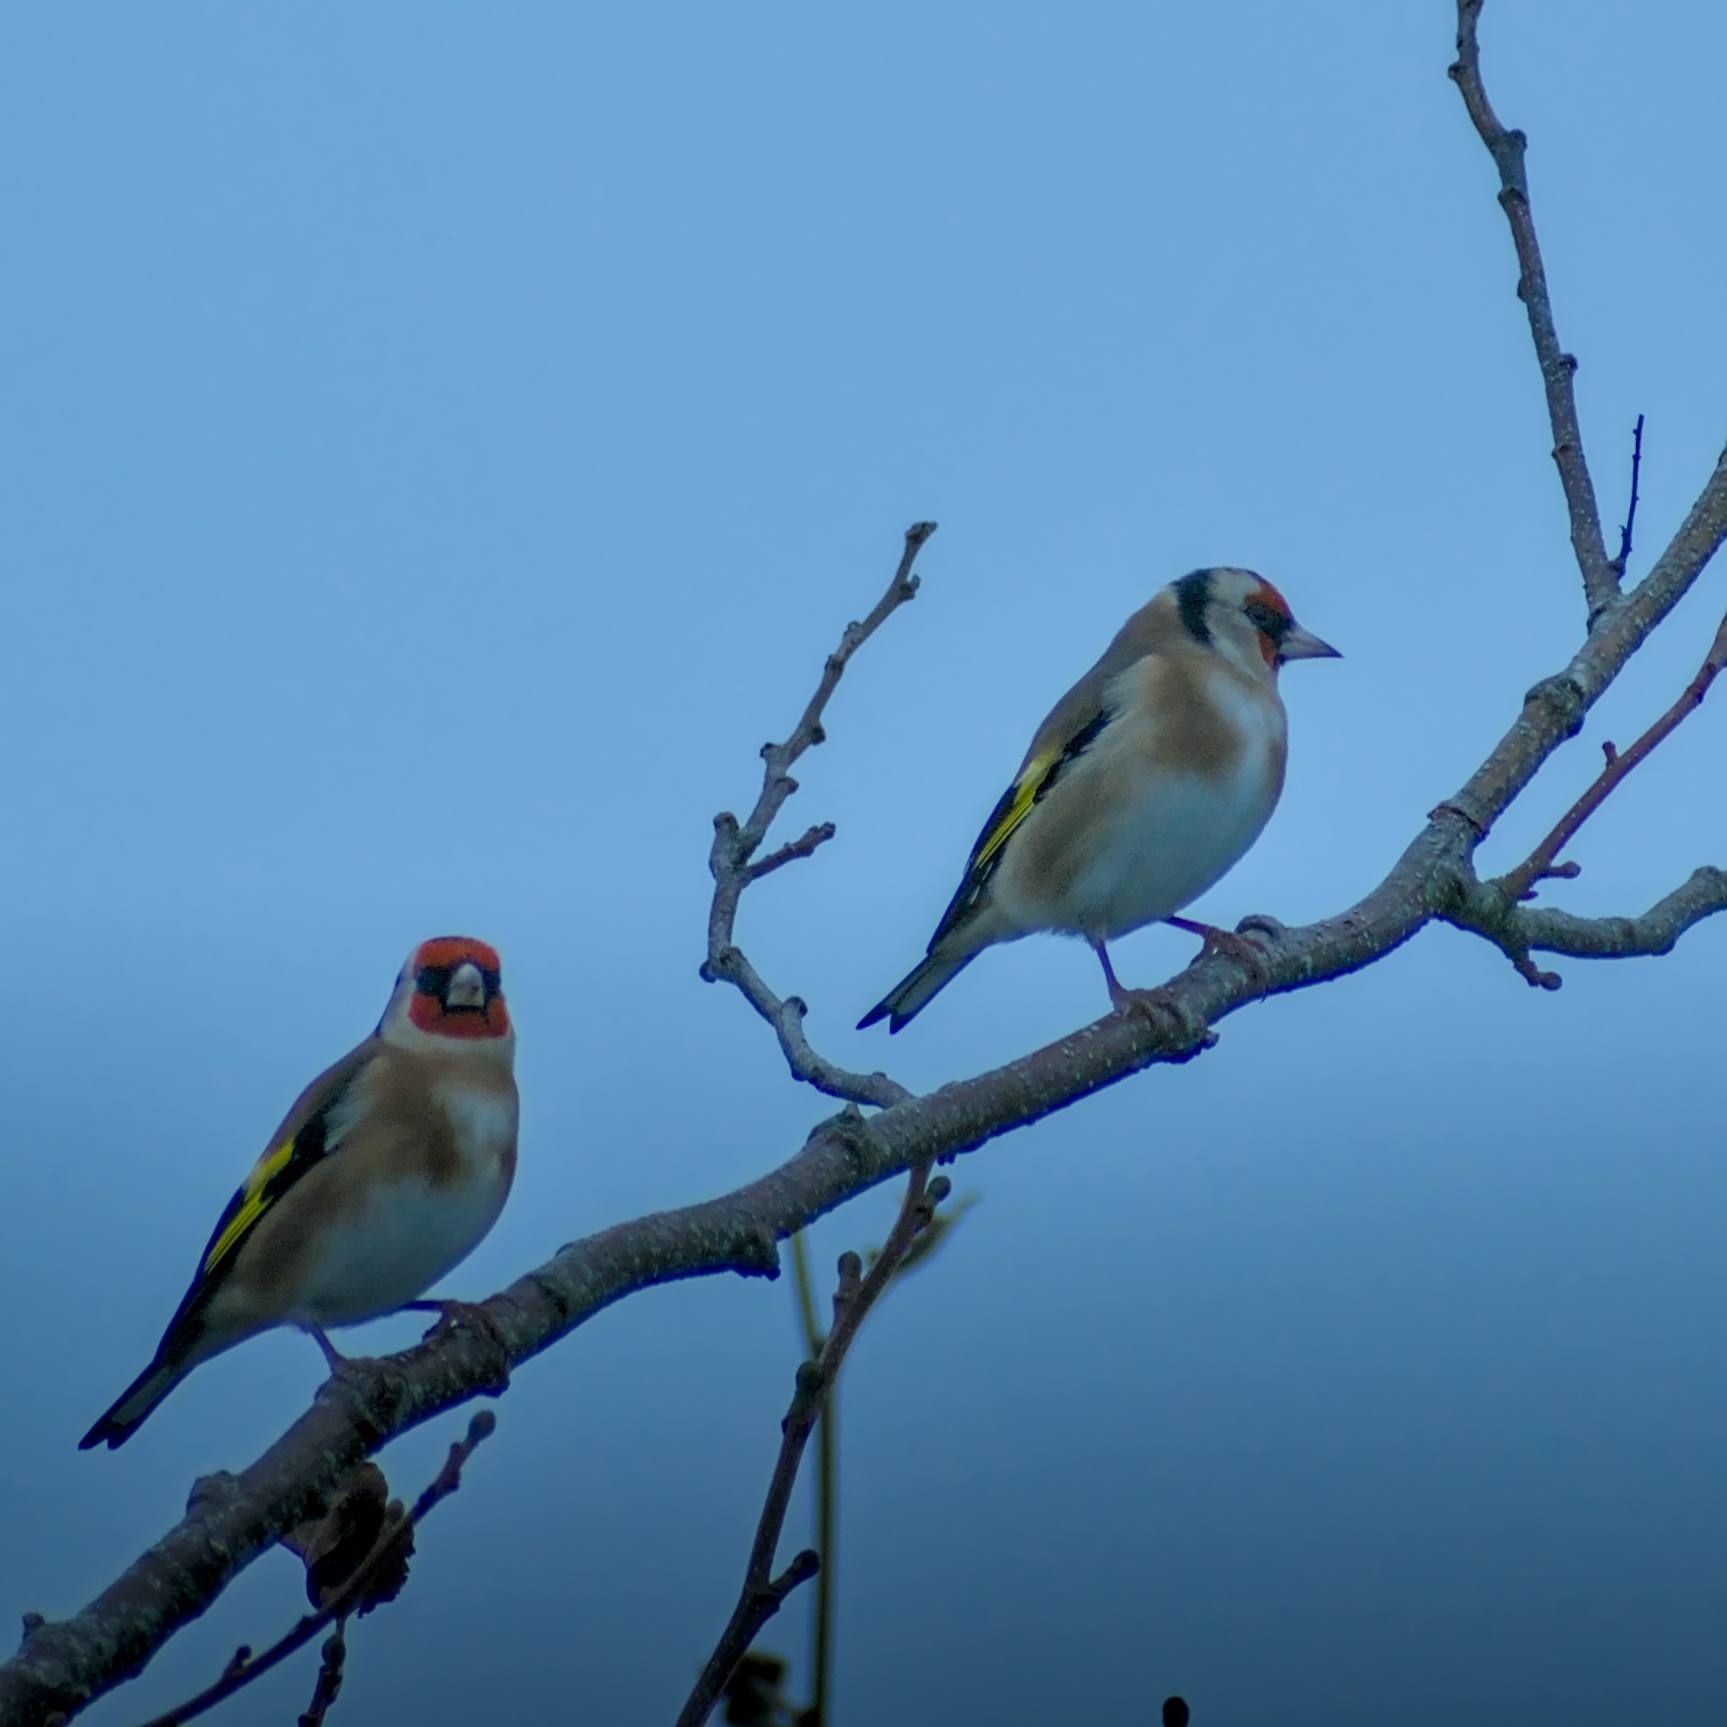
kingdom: Animalia
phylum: Chordata
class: Aves
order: Passeriformes
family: Fringillidae
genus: Carduelis
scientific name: Carduelis carduelis
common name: European goldfinch
